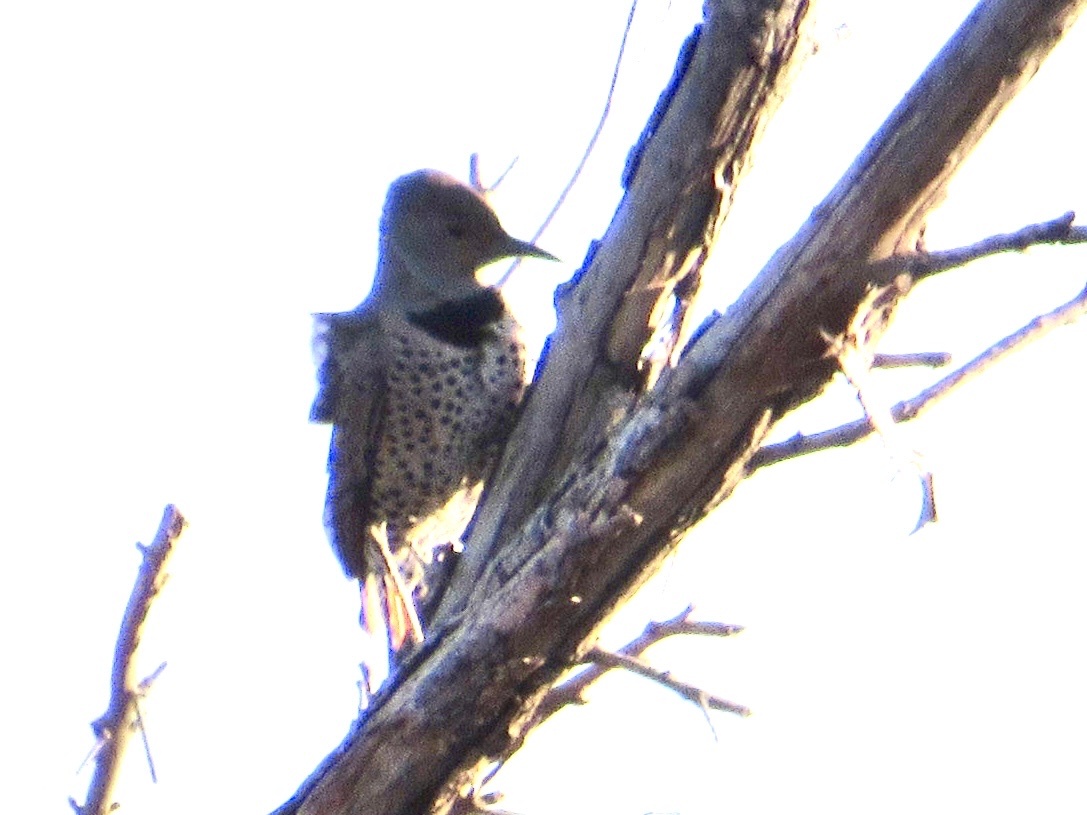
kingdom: Animalia
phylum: Chordata
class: Aves
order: Piciformes
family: Picidae
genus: Colaptes
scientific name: Colaptes auratus
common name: Northern flicker
